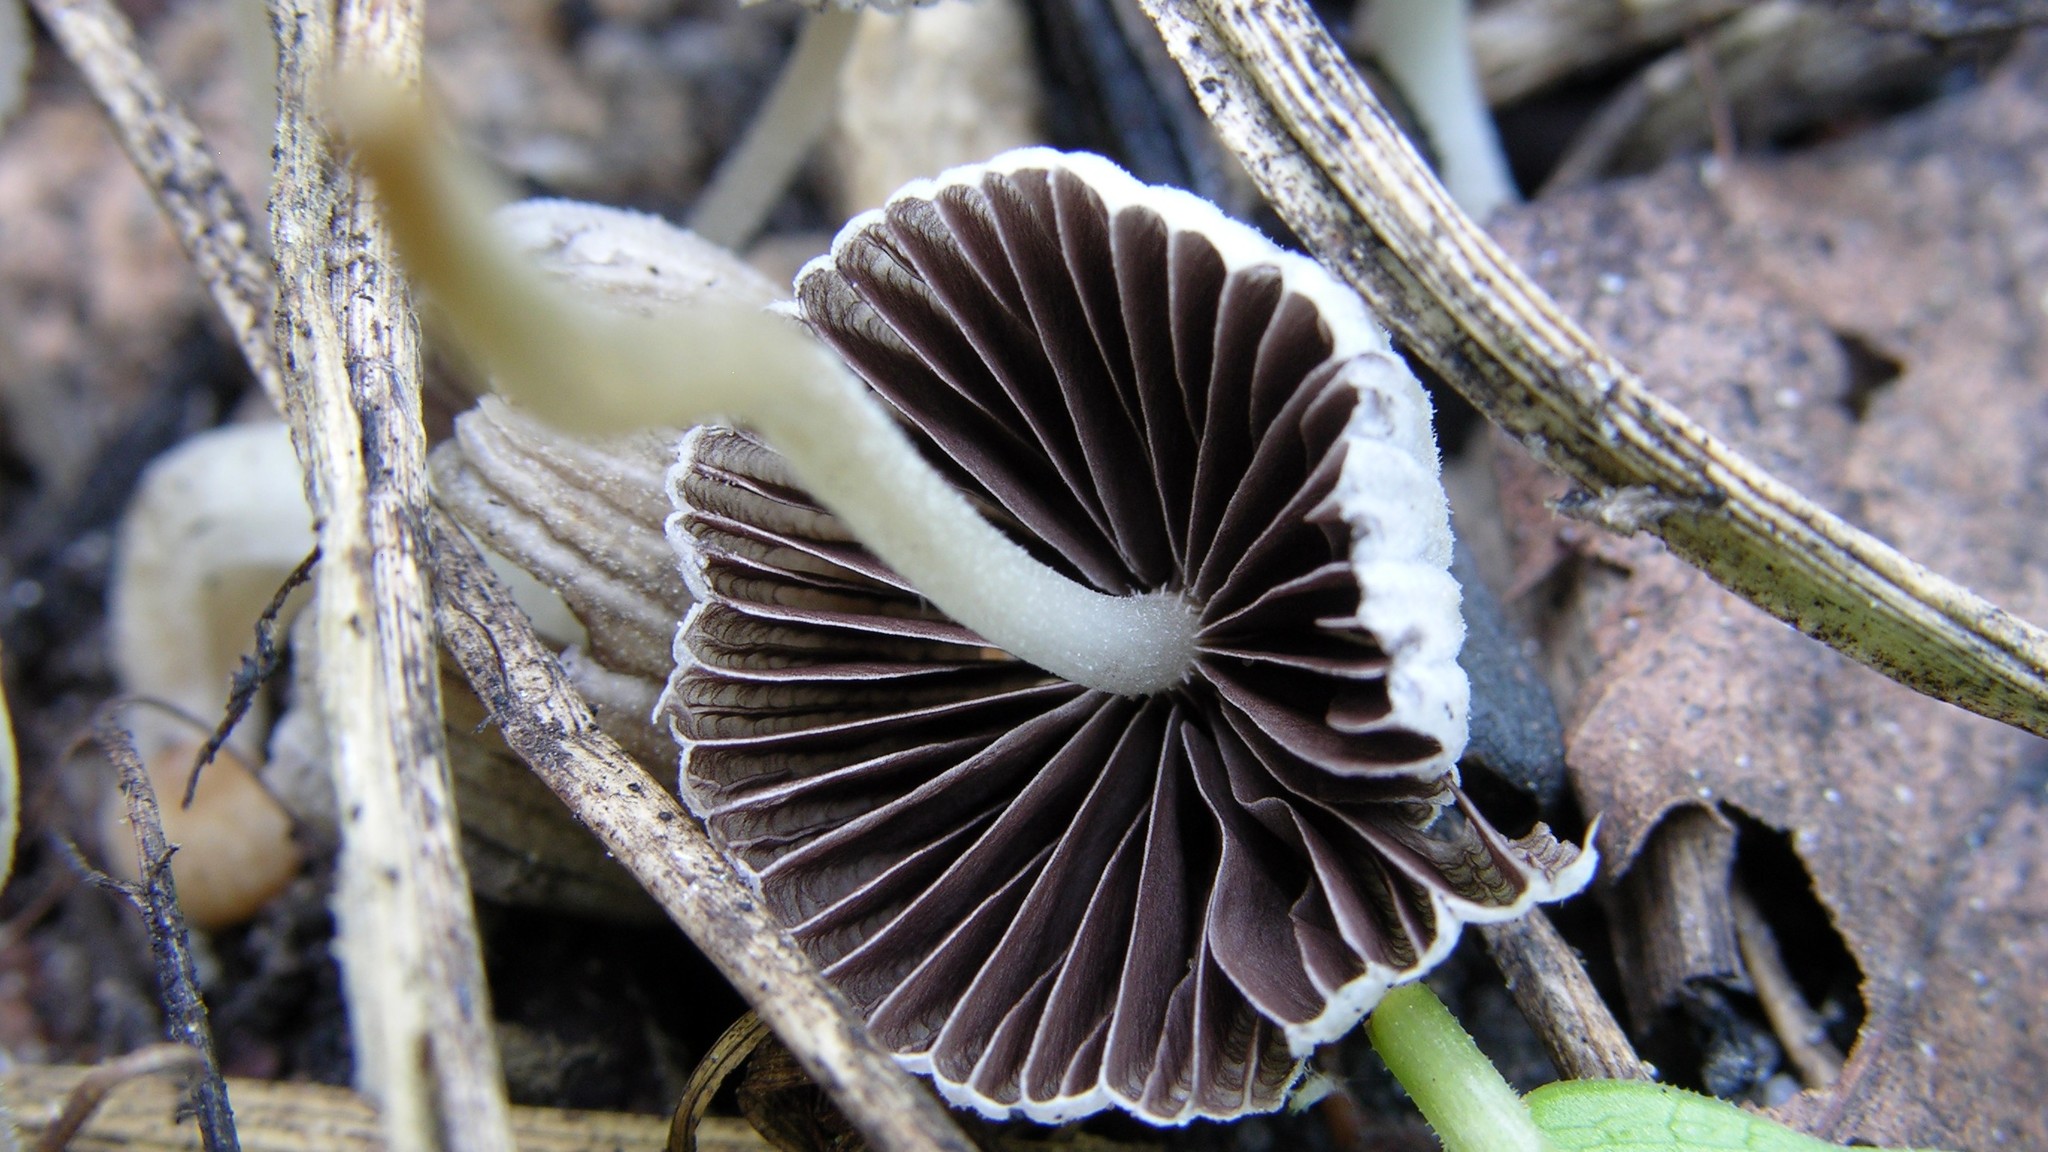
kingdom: Fungi
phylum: Basidiomycota
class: Agaricomycetes
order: Agaricales
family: Psathyrellaceae
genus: Coprinellus
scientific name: Coprinellus disseminatus
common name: Fairies' bonnets
